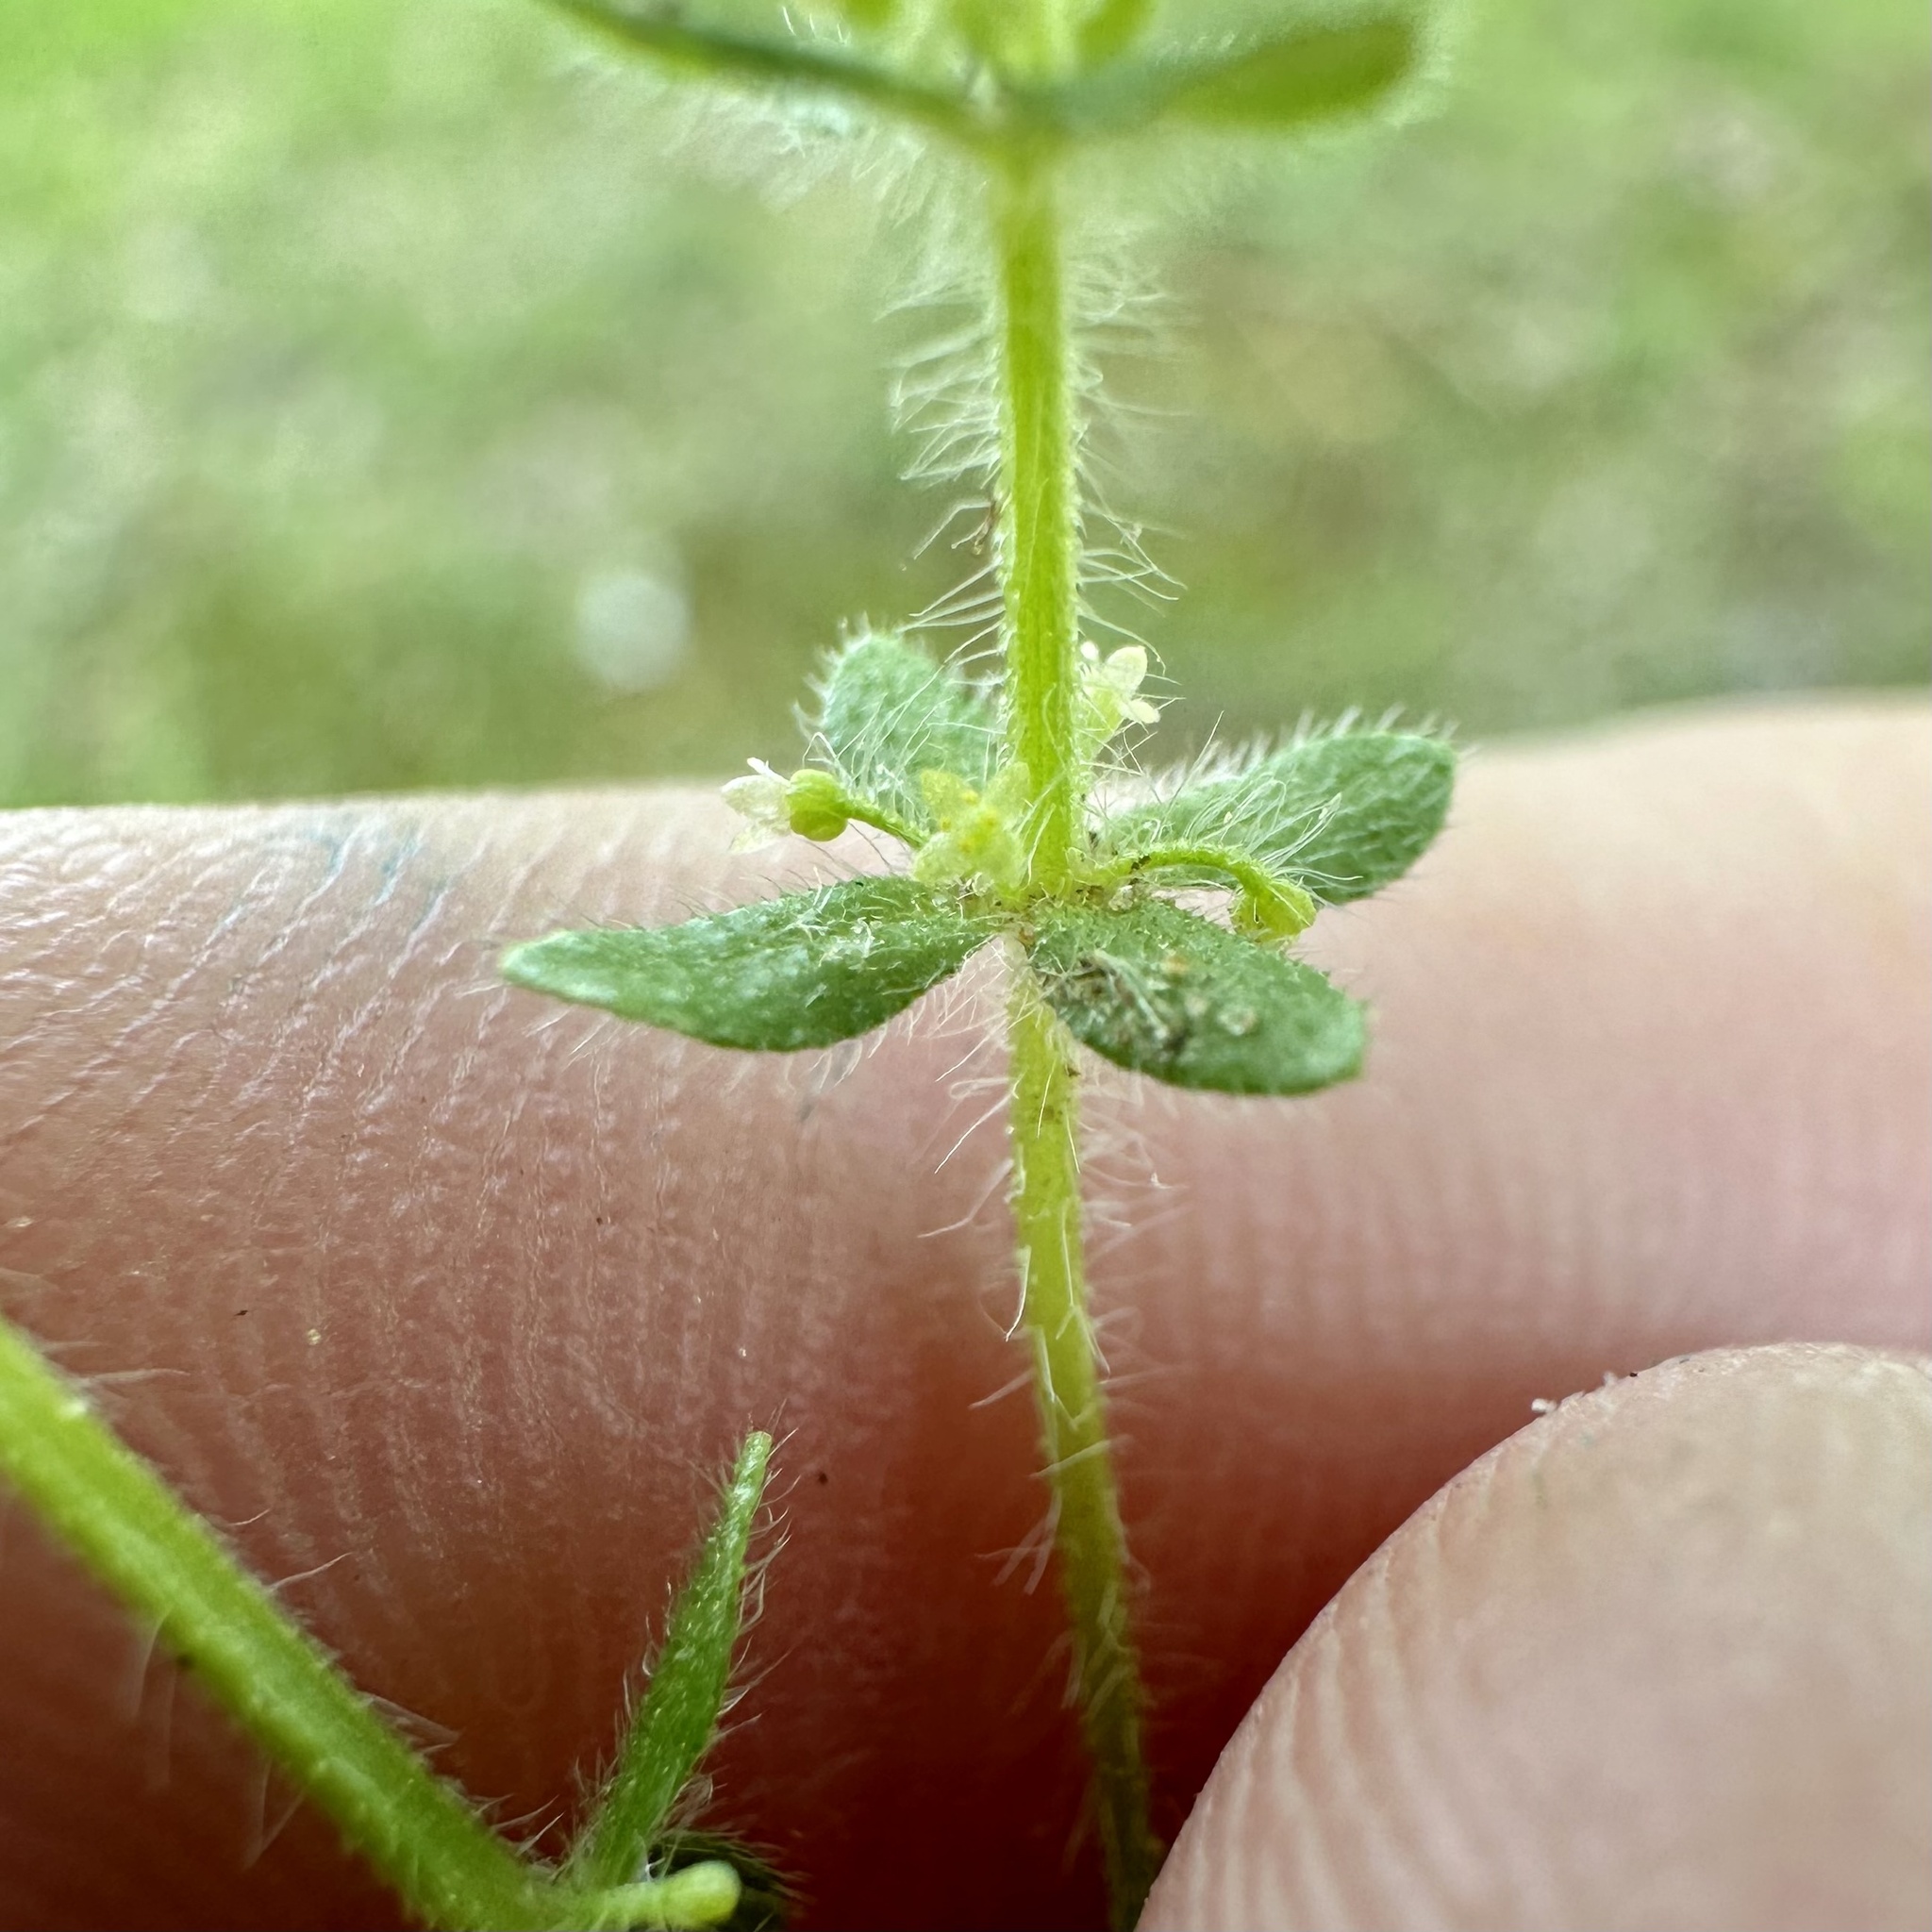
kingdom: Plantae
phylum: Tracheophyta
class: Magnoliopsida
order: Gentianales
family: Rubiaceae
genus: Cruciata
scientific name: Cruciata pedemontana
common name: Piedmont bedstraw
